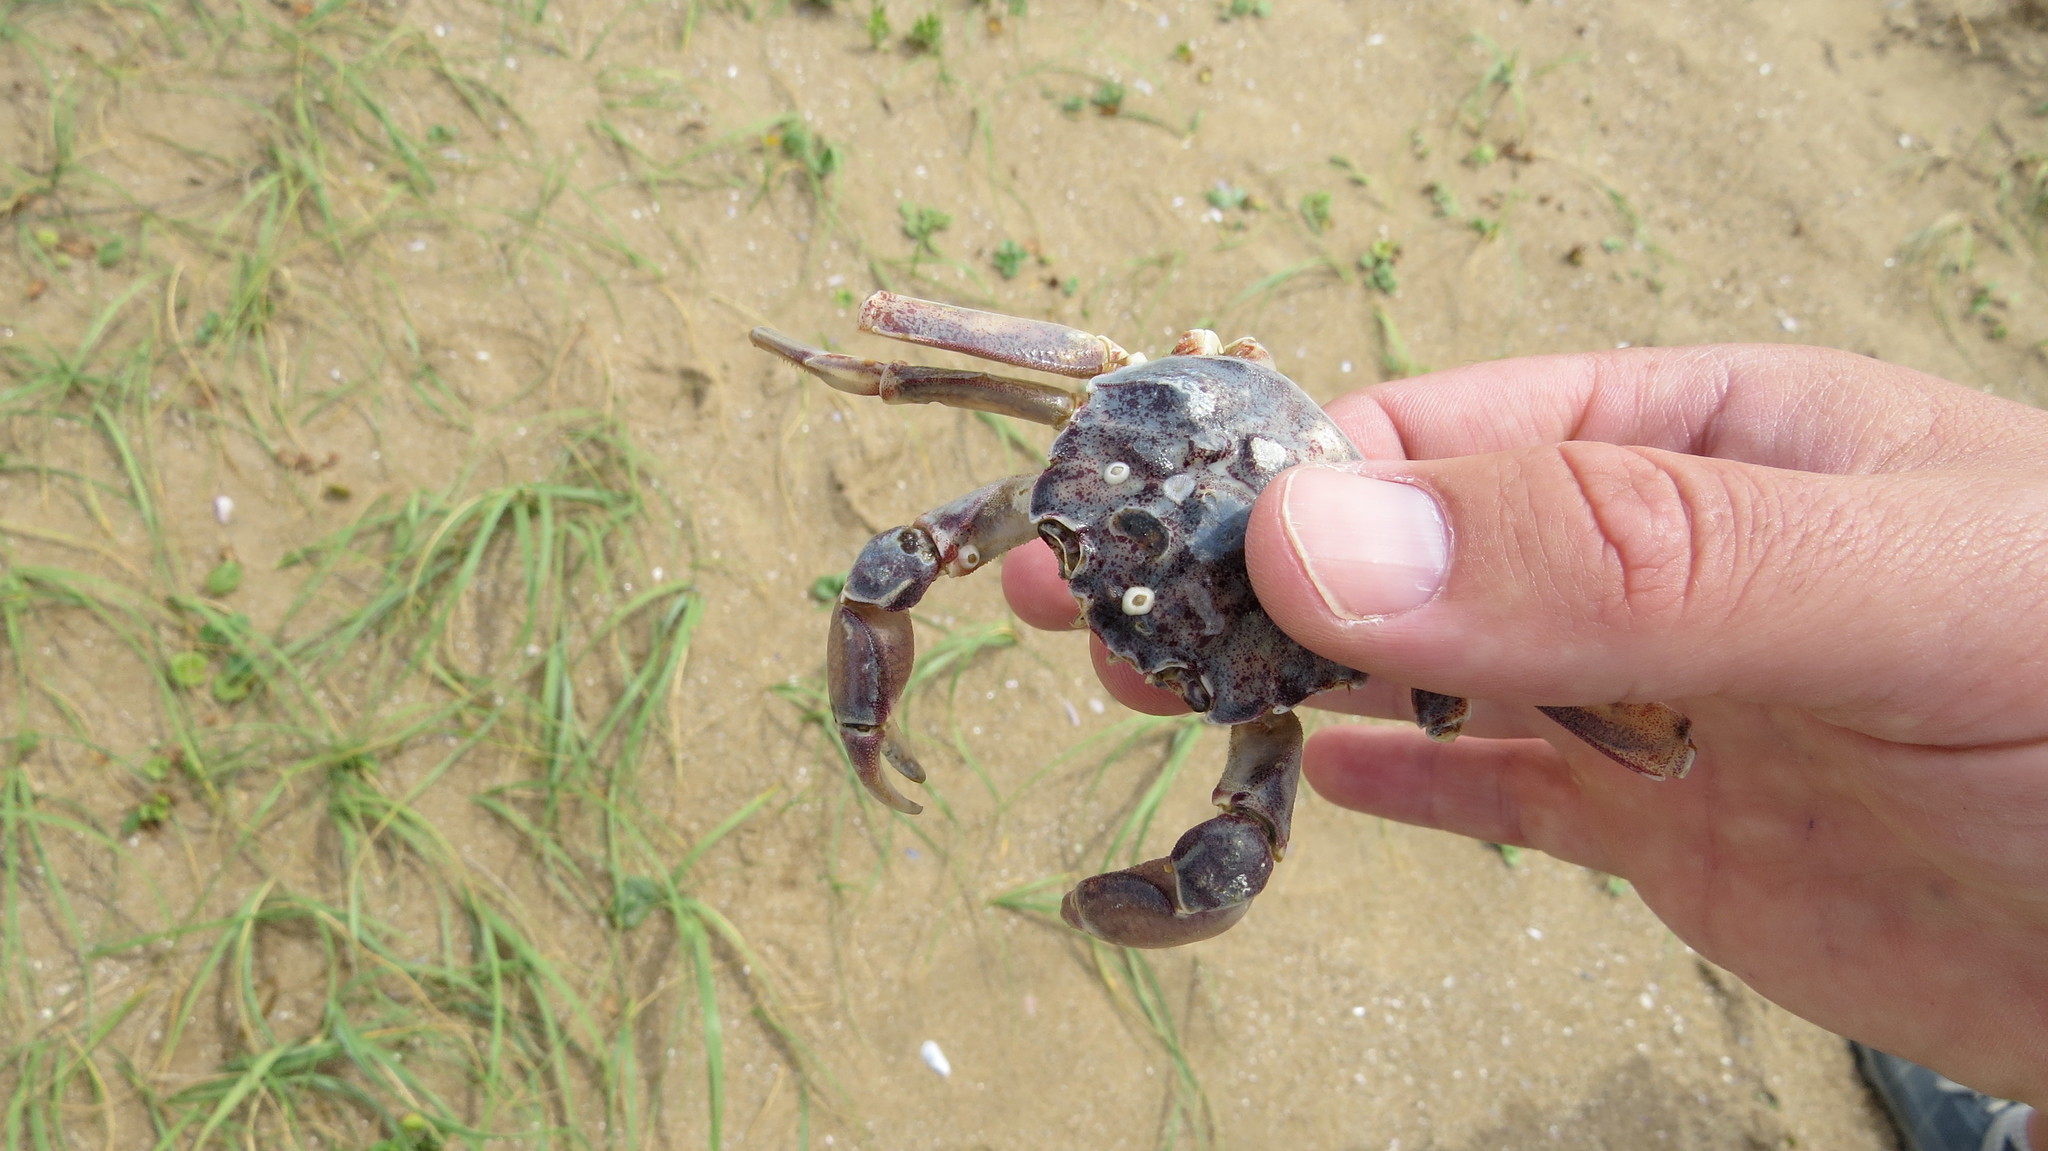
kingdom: Animalia
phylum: Arthropoda
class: Malacostraca
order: Decapoda
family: Varunidae
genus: Cyrtograpsus
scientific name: Cyrtograpsus angulatus
